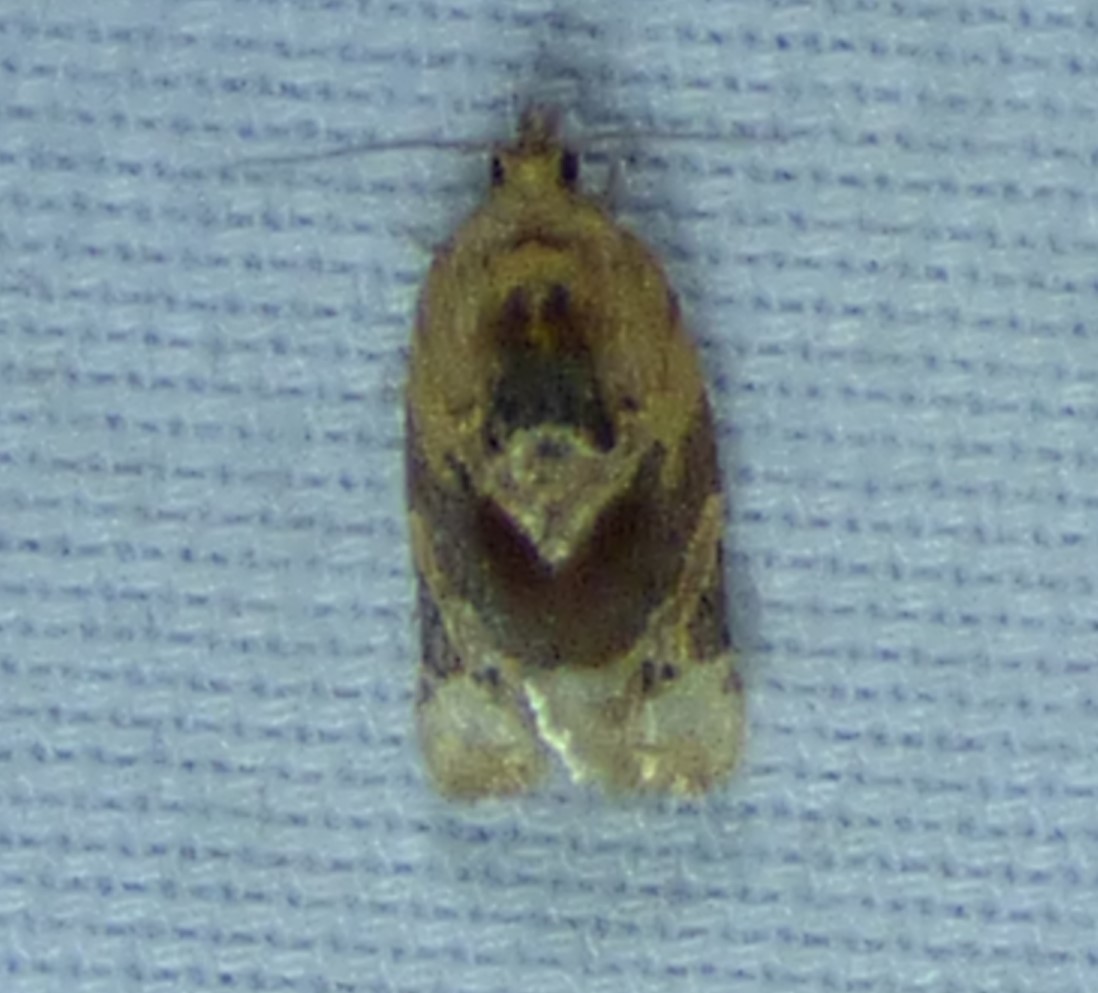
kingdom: Animalia
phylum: Arthropoda
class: Insecta
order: Lepidoptera
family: Tortricidae
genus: Argyrotaenia
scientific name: Argyrotaenia velutinana
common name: Red-banded leafroller moth
